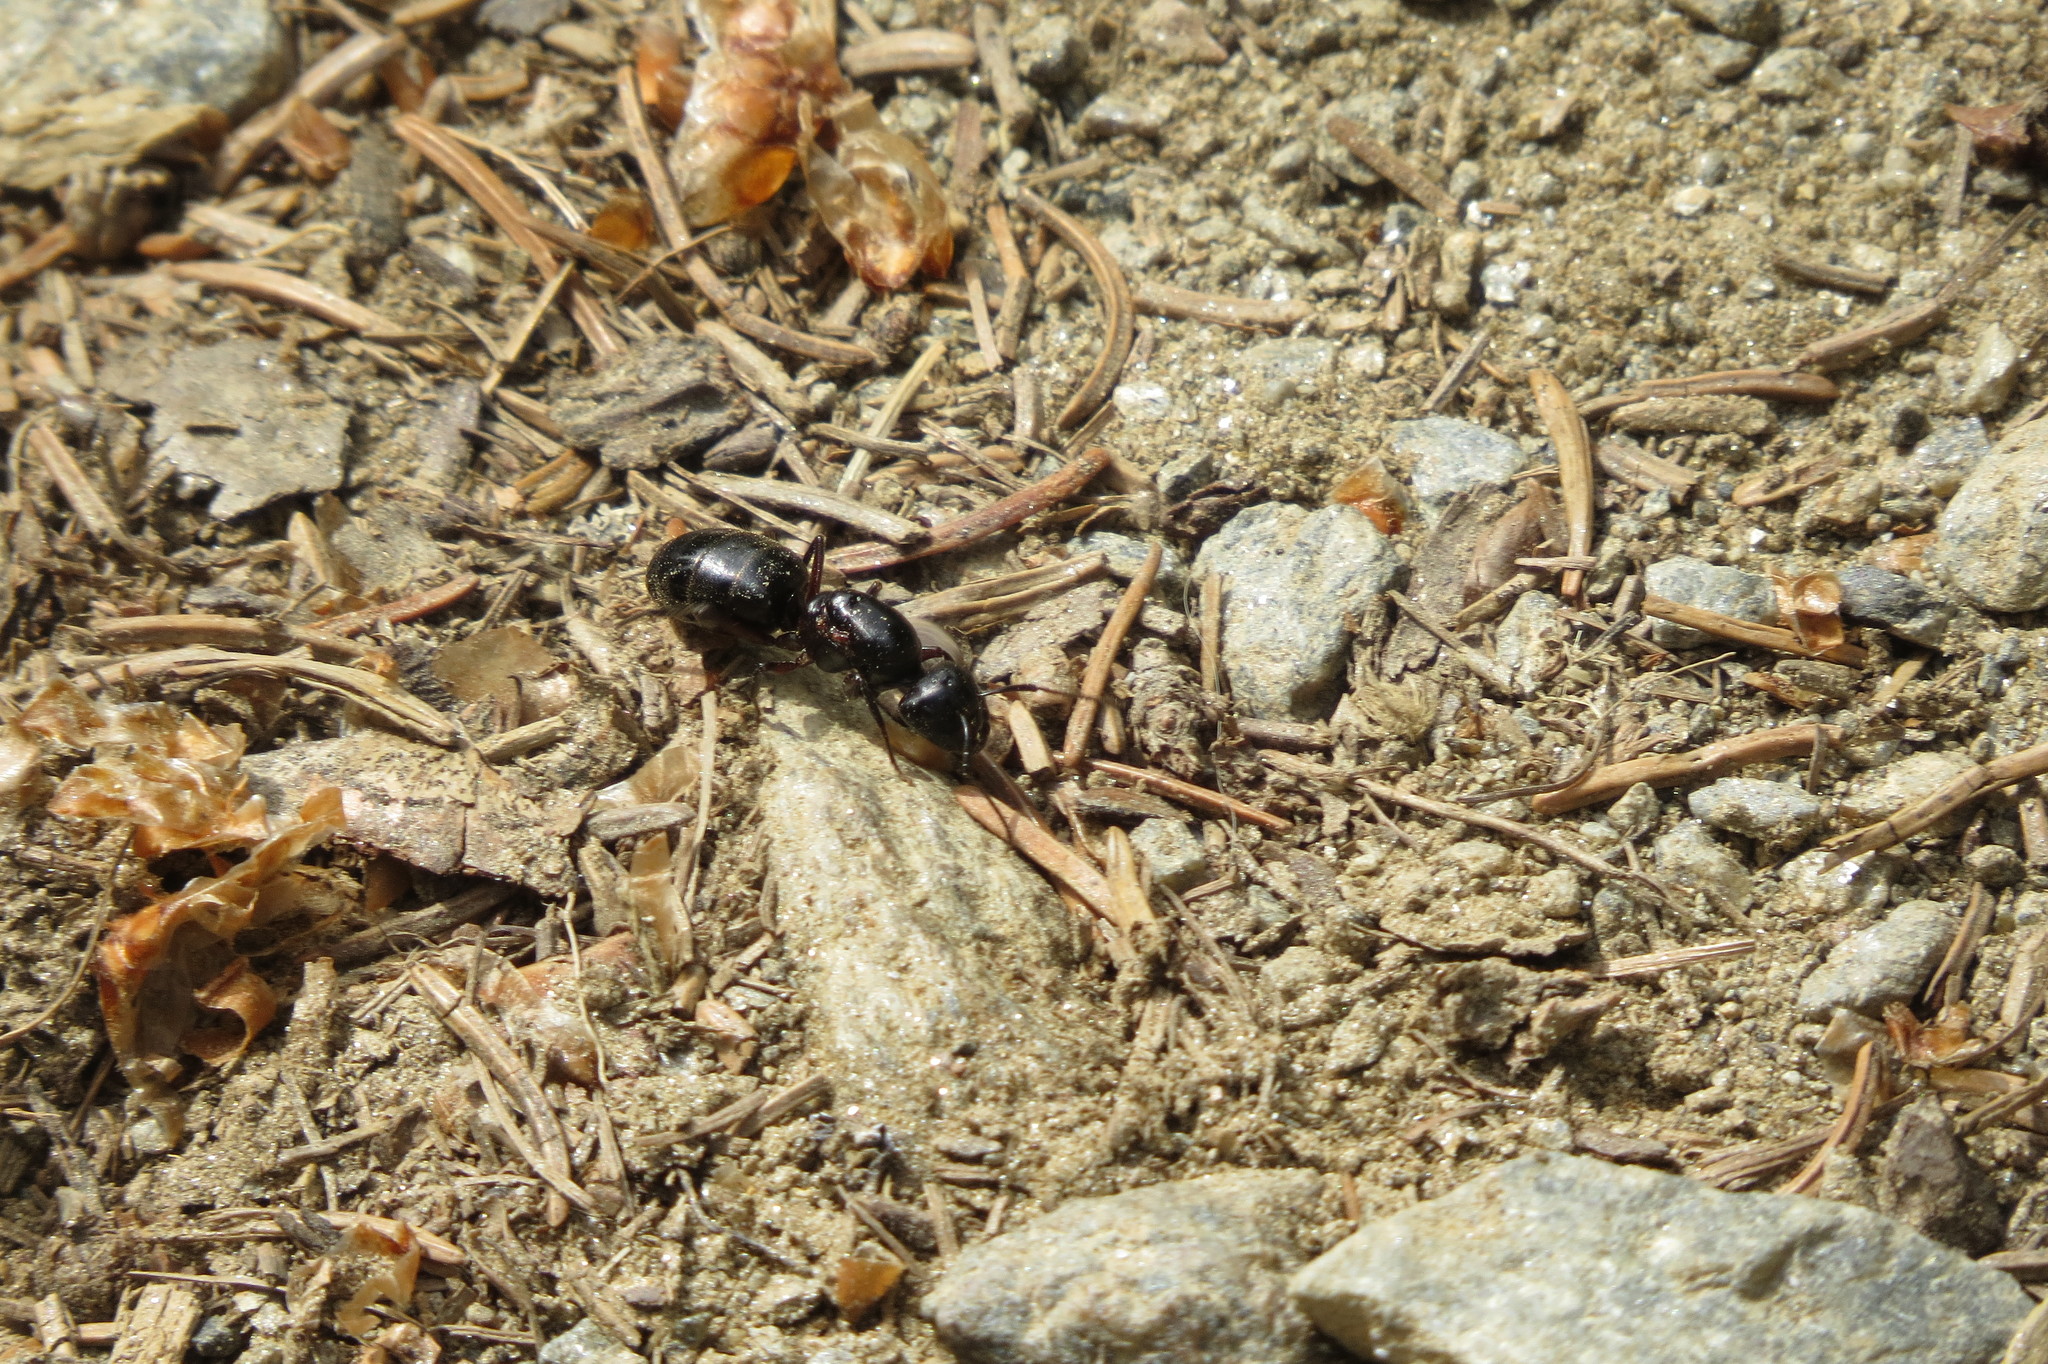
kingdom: Animalia
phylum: Arthropoda
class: Insecta
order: Hymenoptera
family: Formicidae
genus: Camponotus
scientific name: Camponotus herculeanus
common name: Hercules ant
